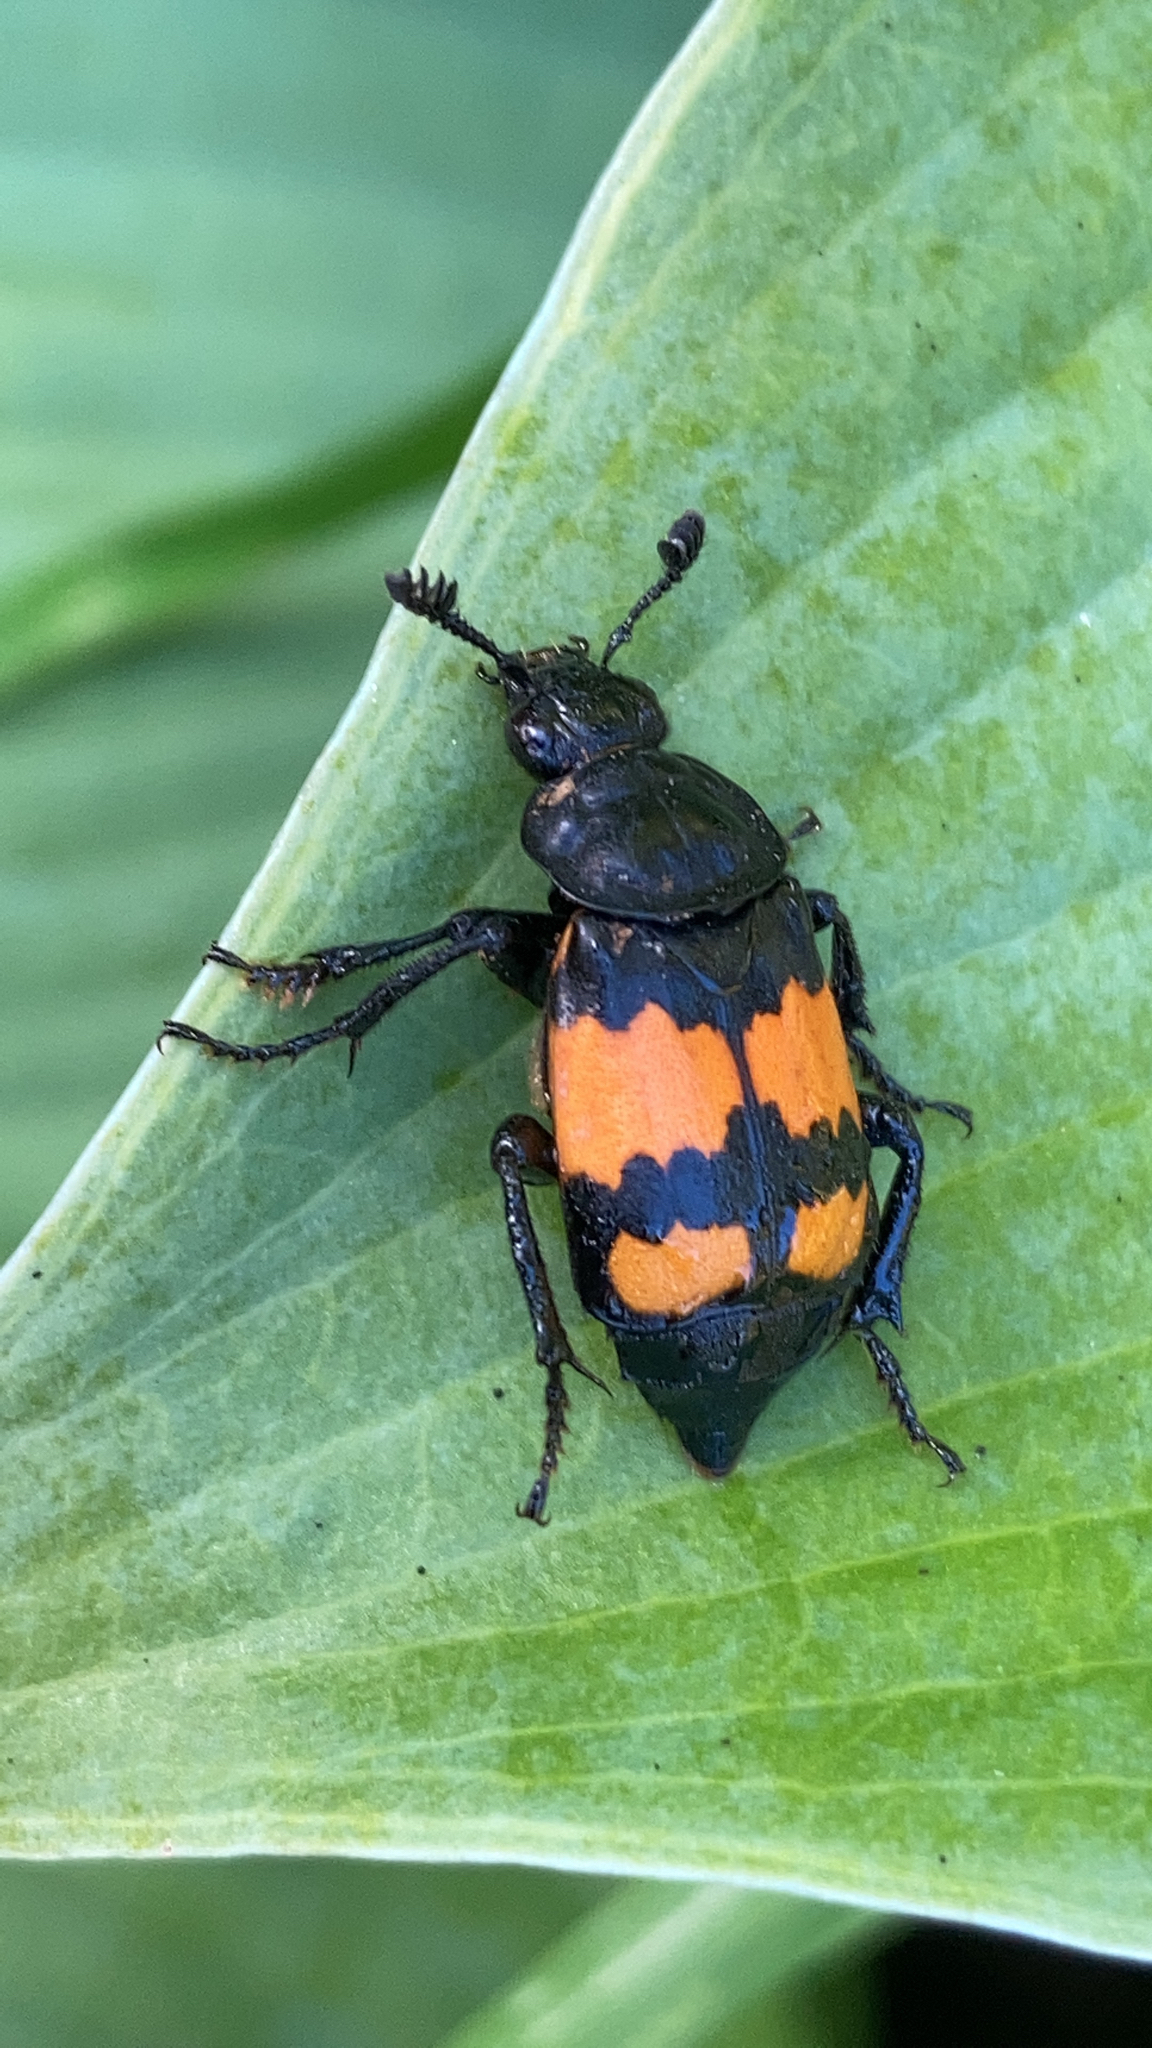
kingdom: Animalia
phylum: Arthropoda
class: Insecta
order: Coleoptera
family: Staphylinidae
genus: Nicrophorus
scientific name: Nicrophorus vespilloides
